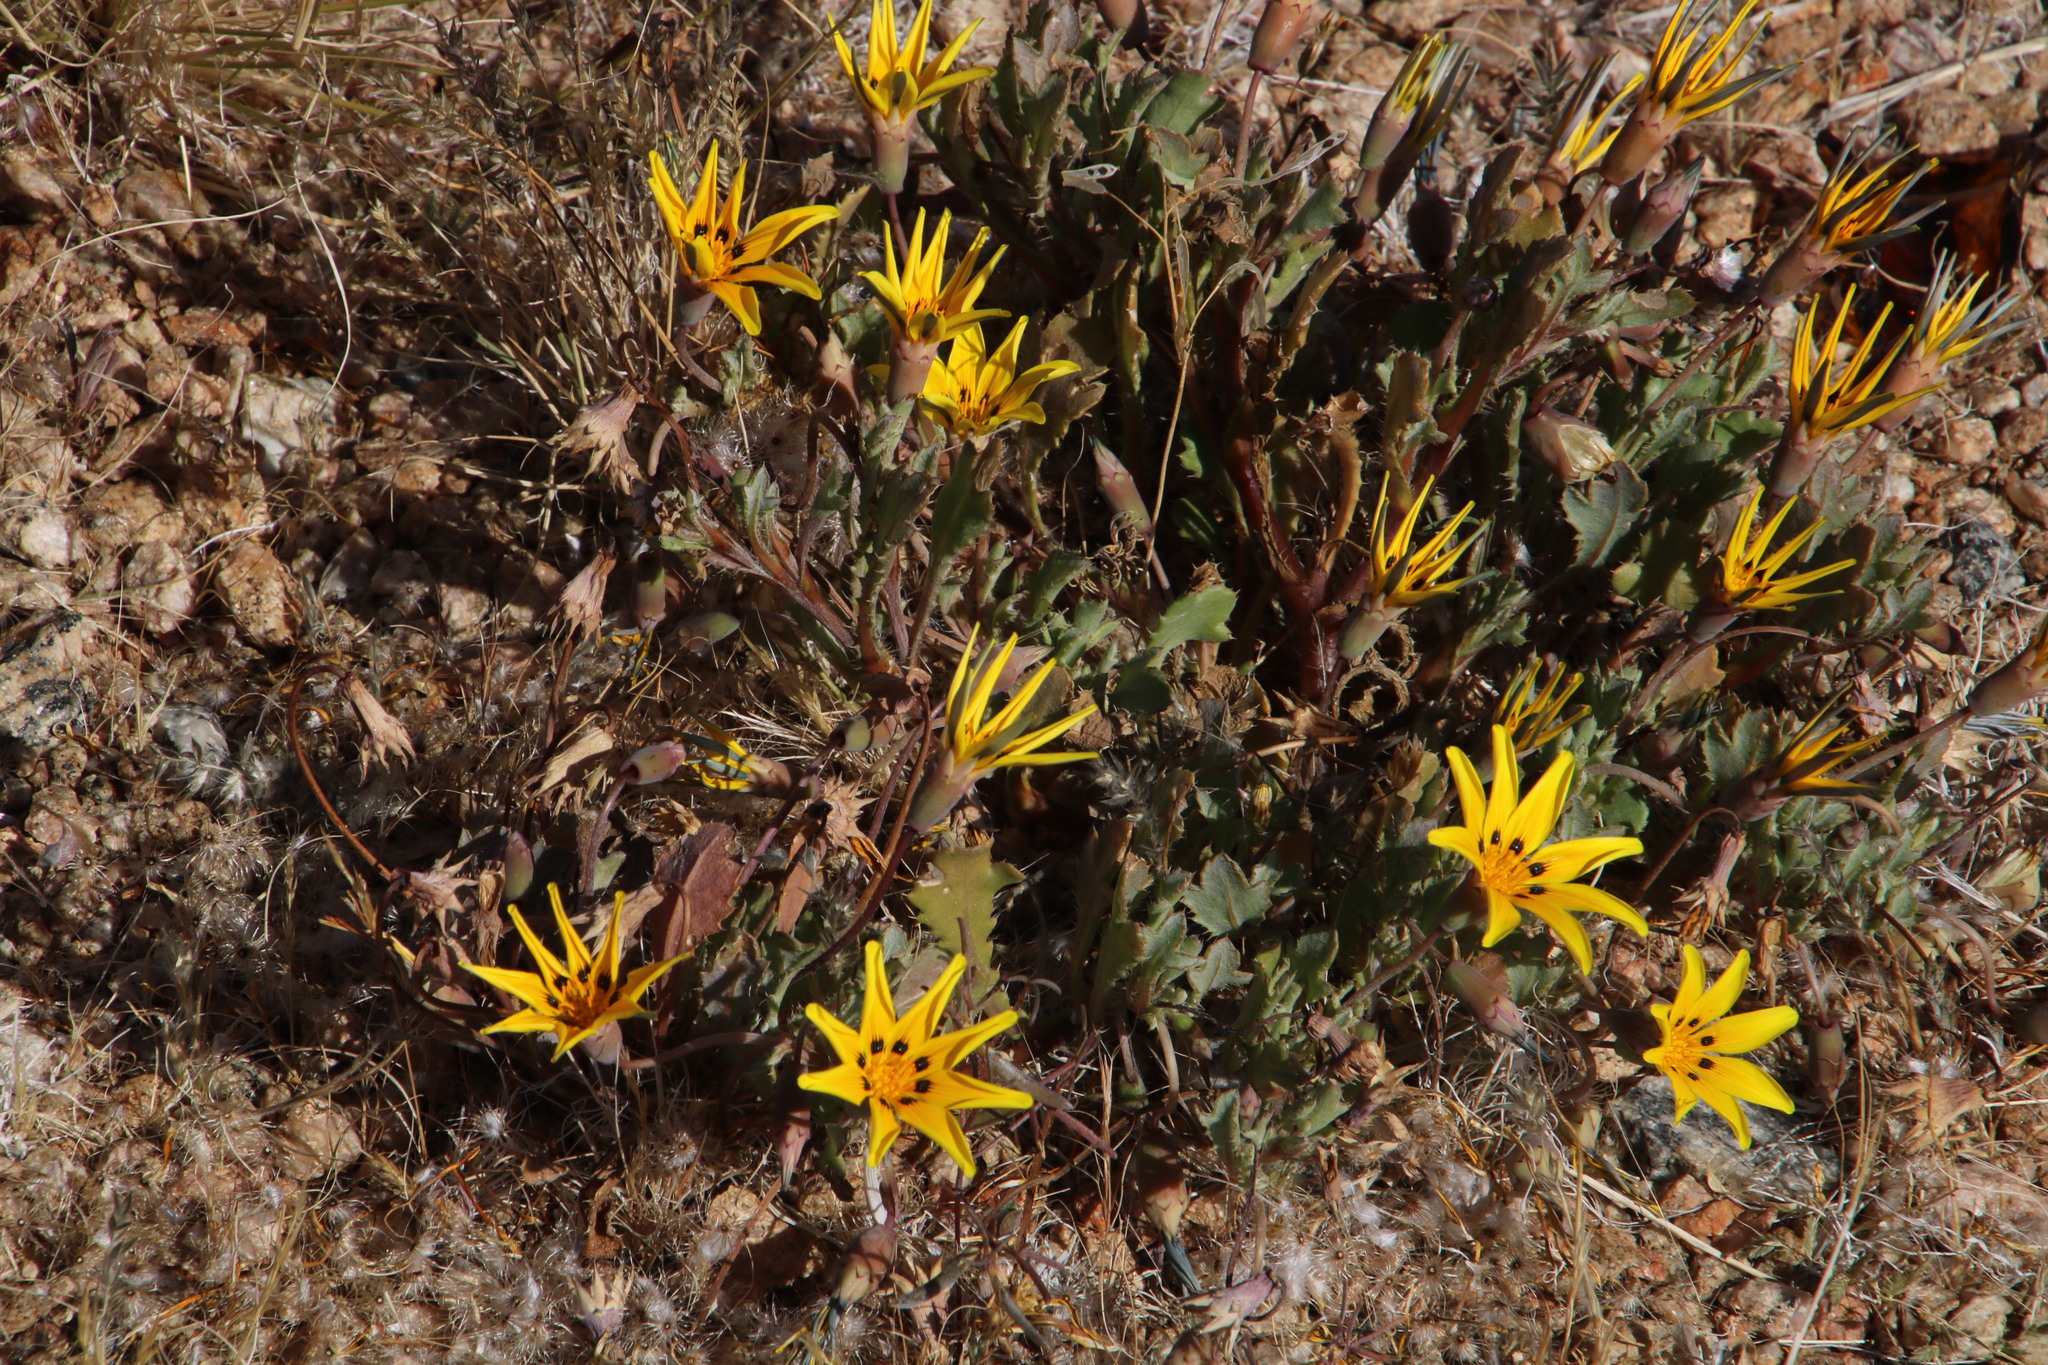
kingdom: Plantae
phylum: Tracheophyta
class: Magnoliopsida
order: Asterales
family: Asteraceae
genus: Gazania
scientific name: Gazania lichtensteinii
